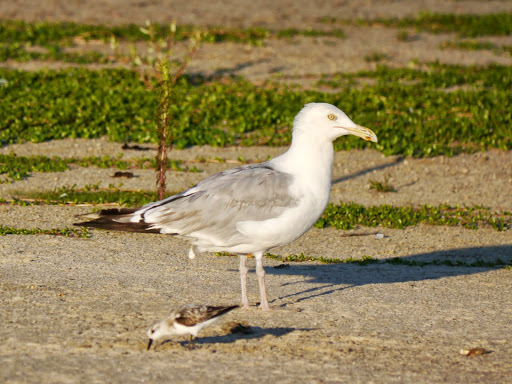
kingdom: Animalia
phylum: Chordata
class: Aves
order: Charadriiformes
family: Laridae
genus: Larus
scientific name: Larus argentatus
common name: Herring gull
